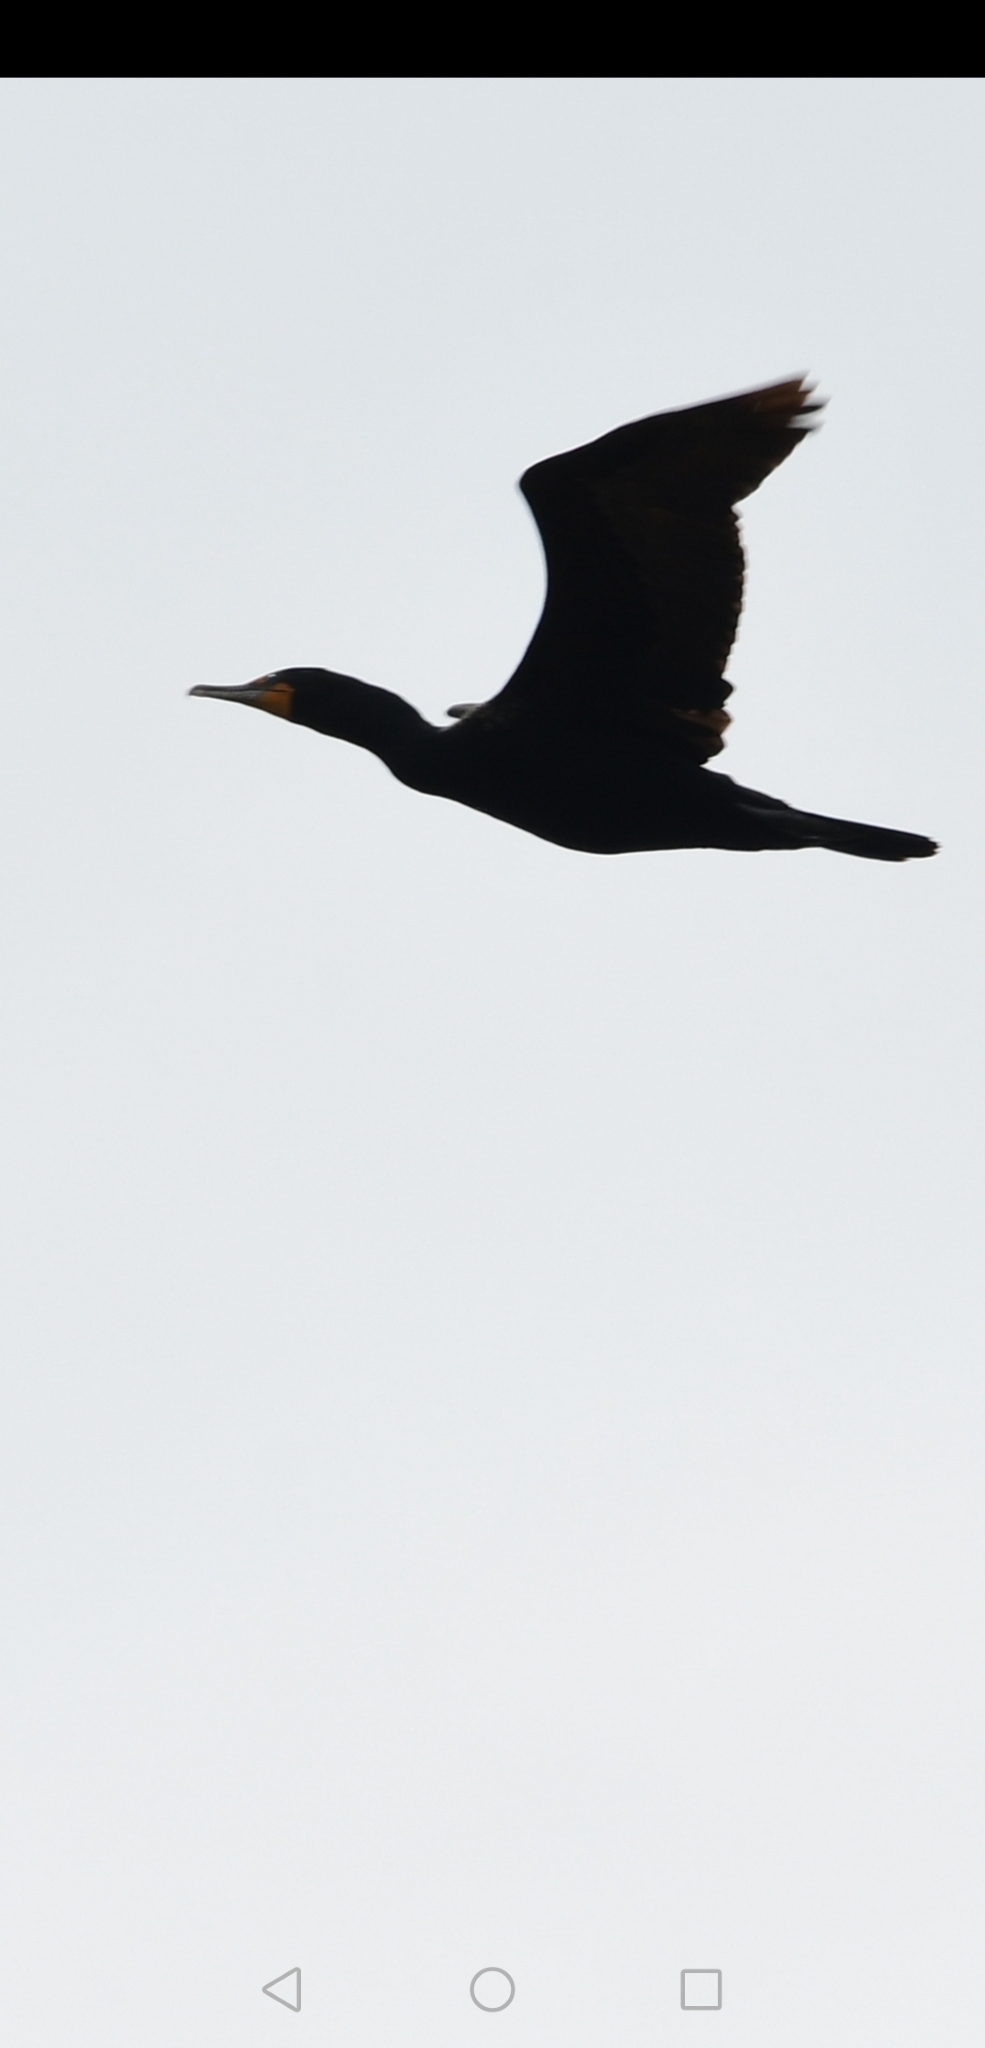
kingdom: Animalia
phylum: Chordata
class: Aves
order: Suliformes
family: Phalacrocoracidae
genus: Phalacrocorax
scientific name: Phalacrocorax auritus
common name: Double-crested cormorant
